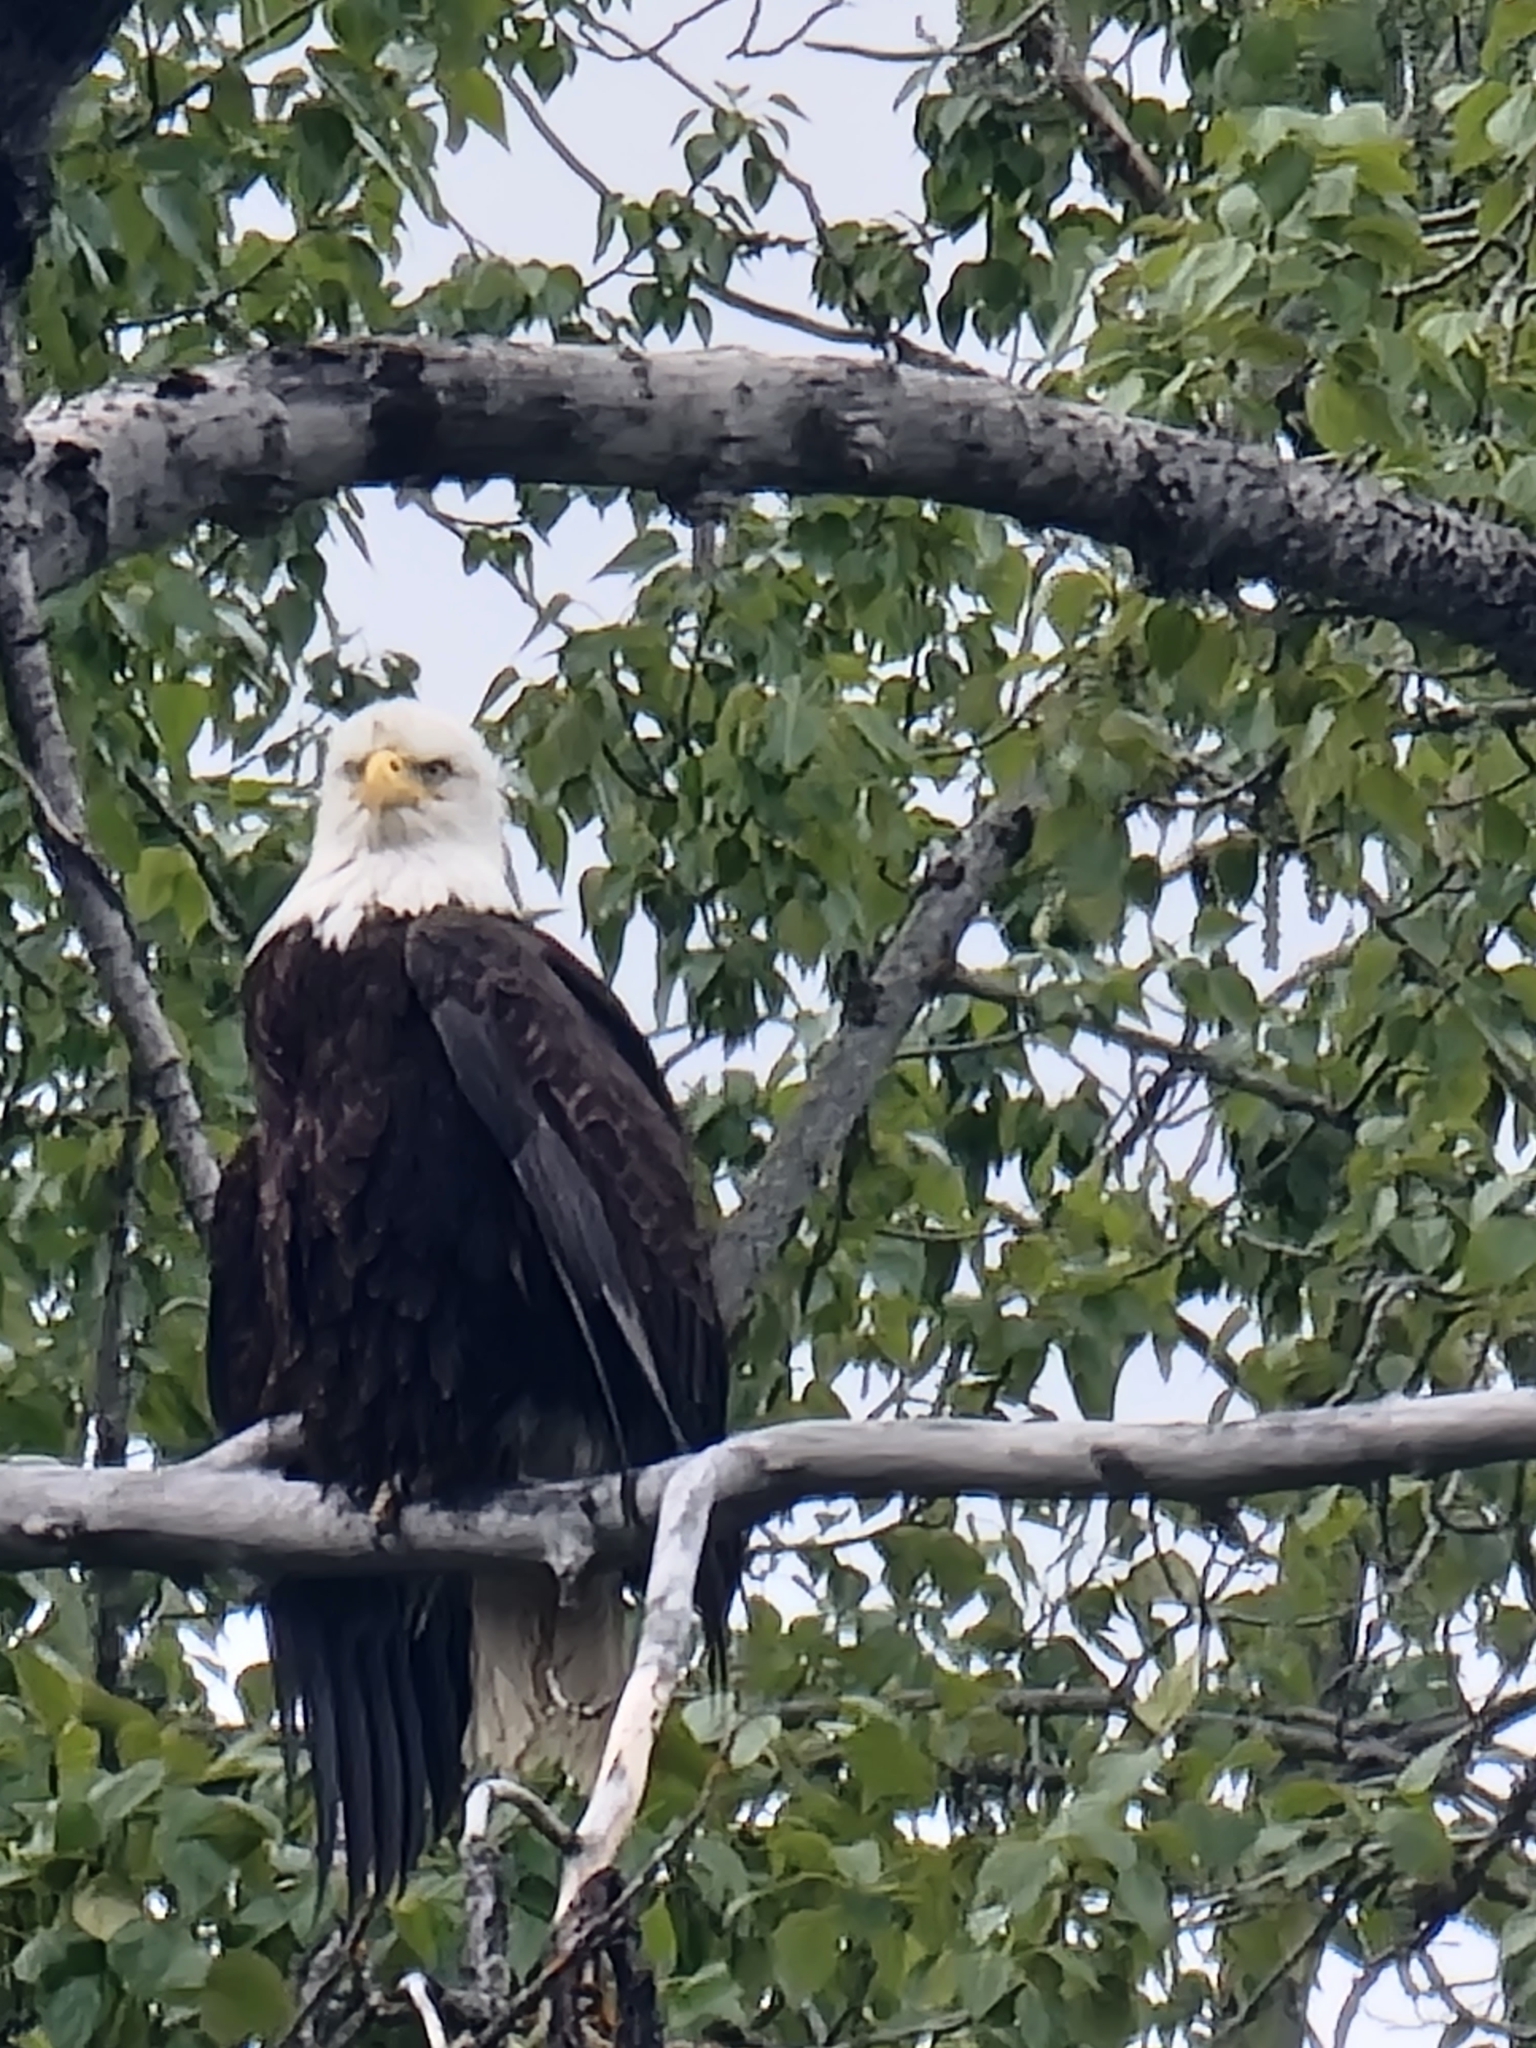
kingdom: Animalia
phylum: Chordata
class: Aves
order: Accipitriformes
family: Accipitridae
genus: Haliaeetus
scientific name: Haliaeetus leucocephalus
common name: Bald eagle
